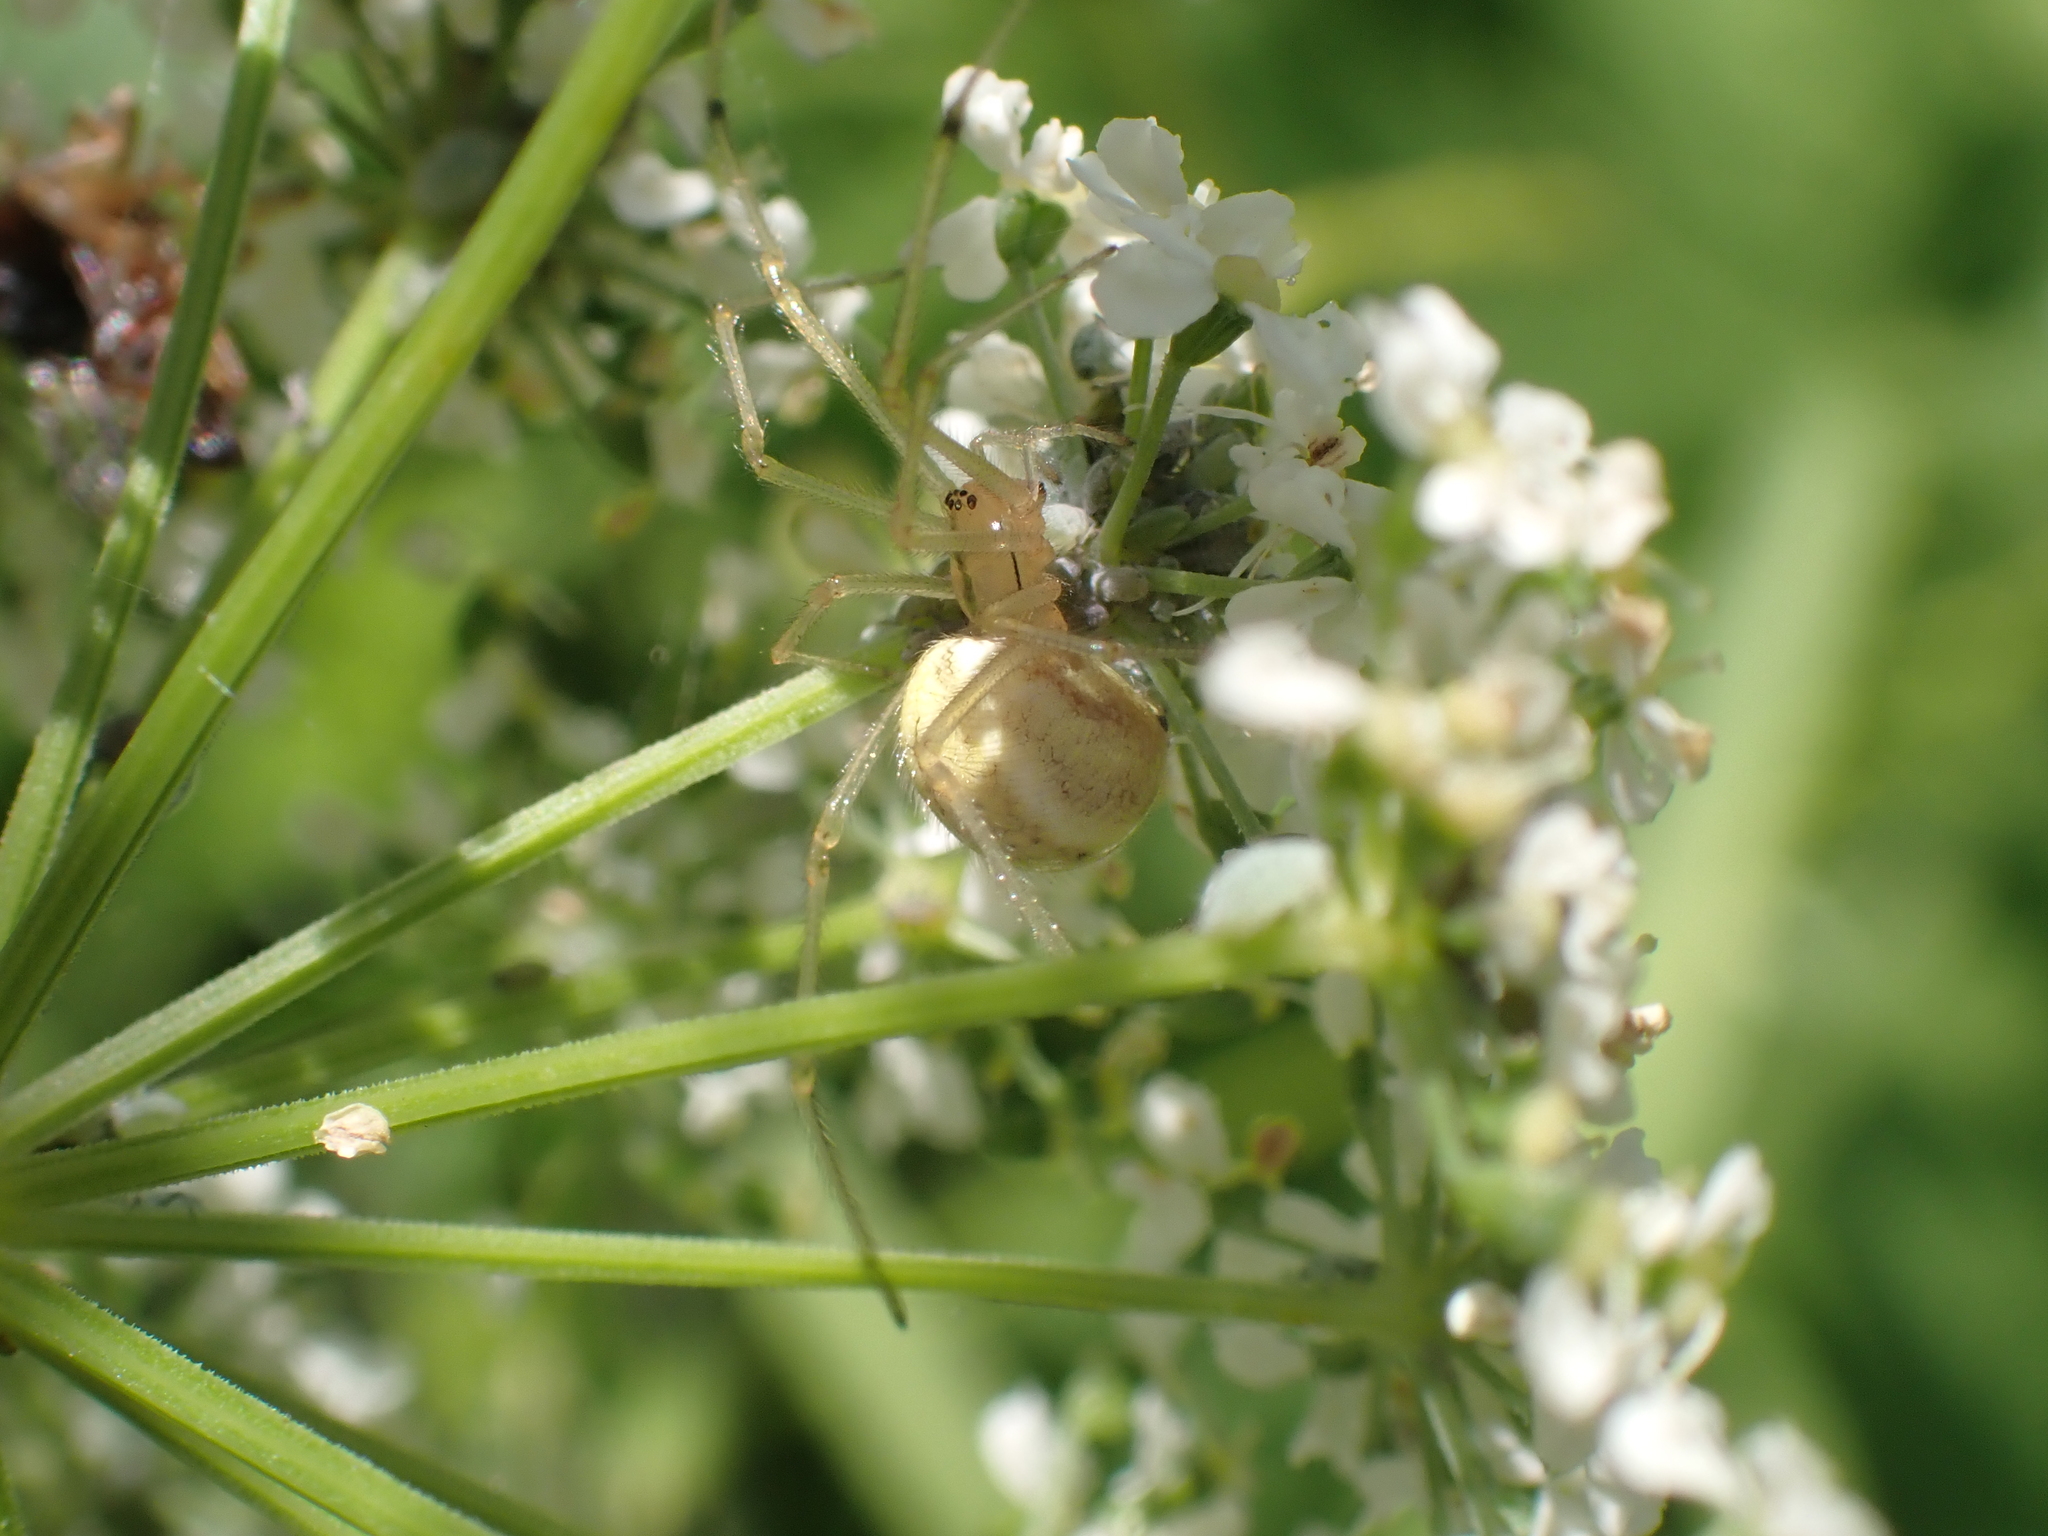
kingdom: Animalia
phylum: Arthropoda
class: Arachnida
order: Araneae
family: Theridiidae
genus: Enoplognatha
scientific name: Enoplognatha
